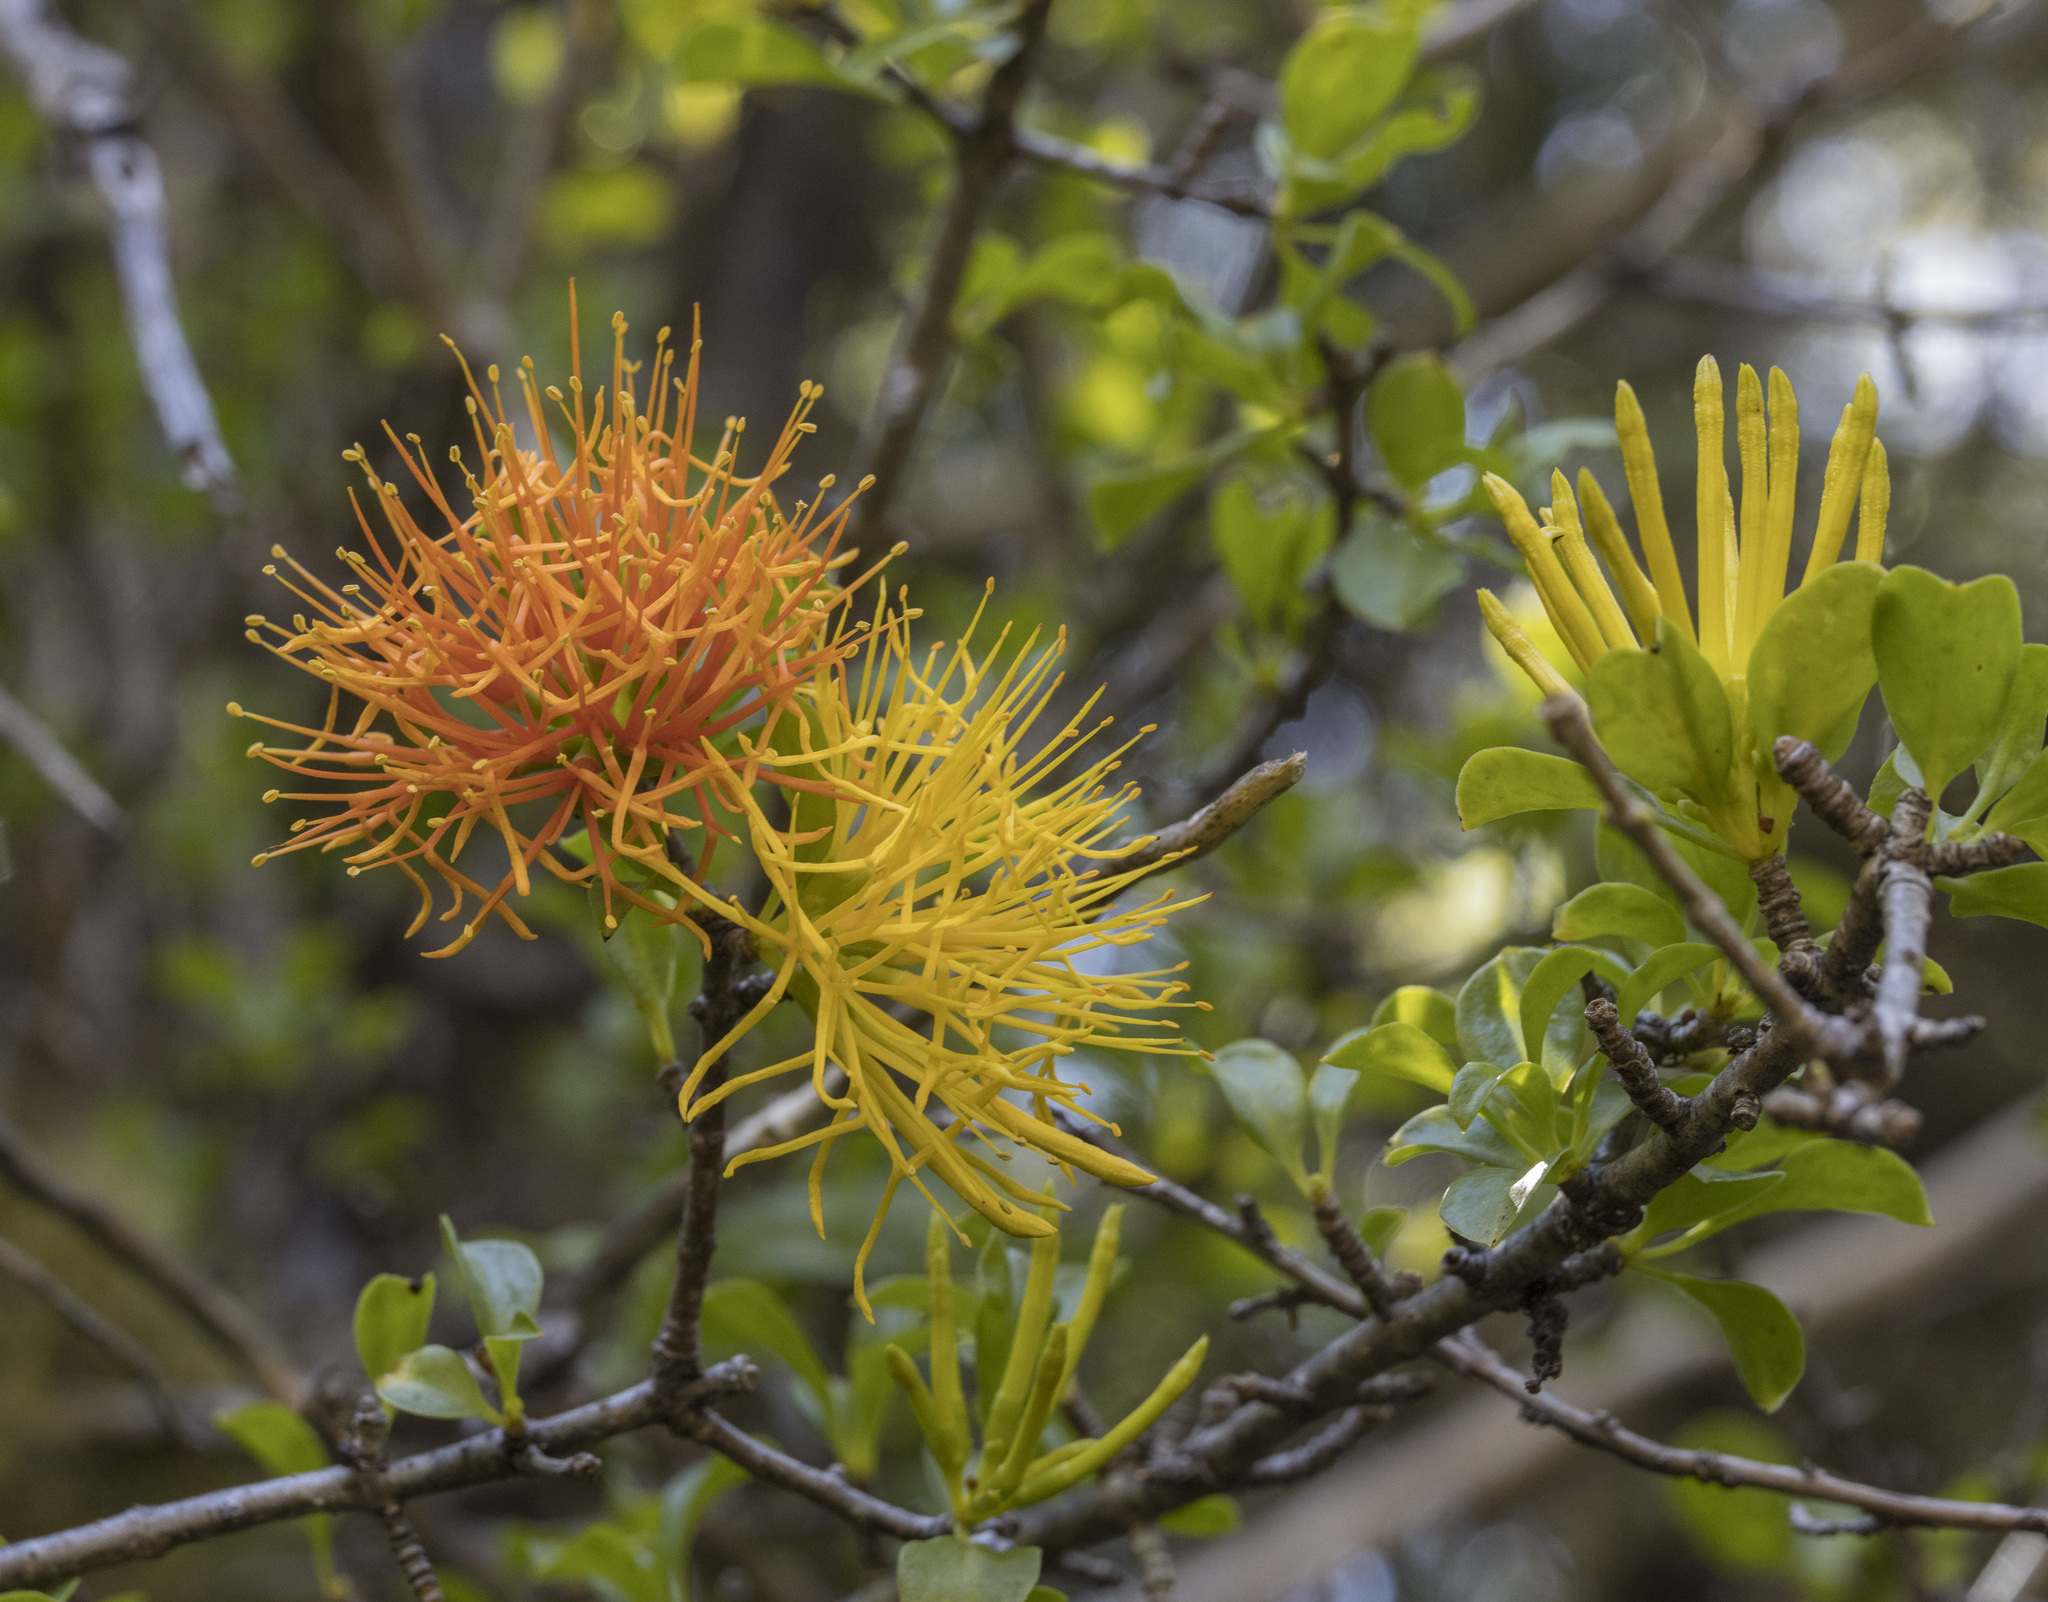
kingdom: Plantae
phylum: Tracheophyta
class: Magnoliopsida
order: Santalales
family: Loranthaceae
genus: Desmaria
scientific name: Desmaria mutabilis
